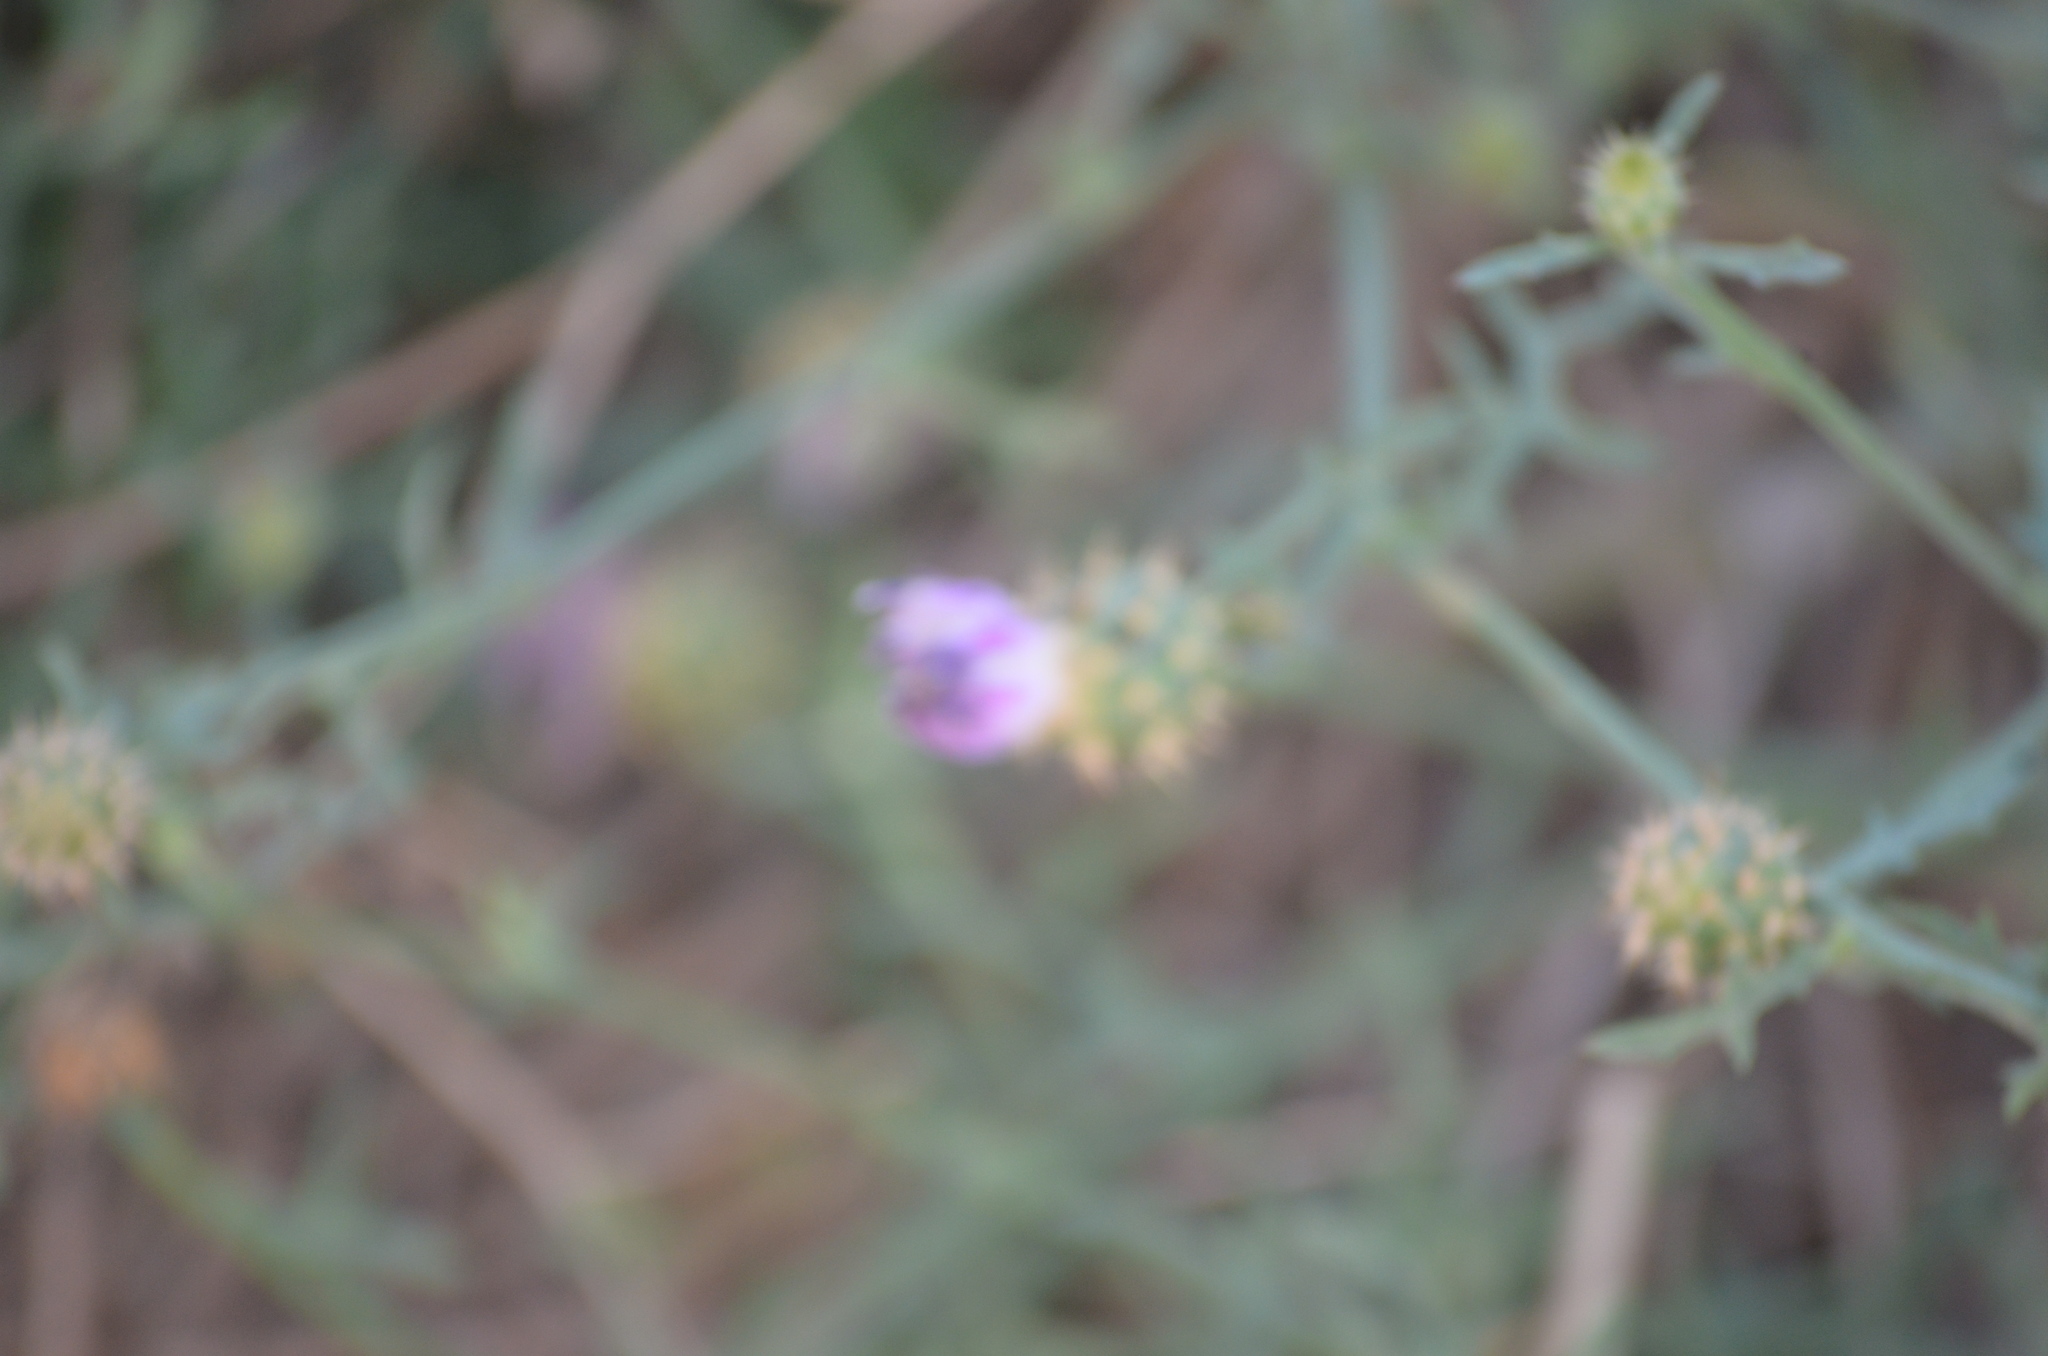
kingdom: Plantae
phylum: Tracheophyta
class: Magnoliopsida
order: Asterales
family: Asteraceae
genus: Centaurea
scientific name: Centaurea aspera
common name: Rough star-thistle
